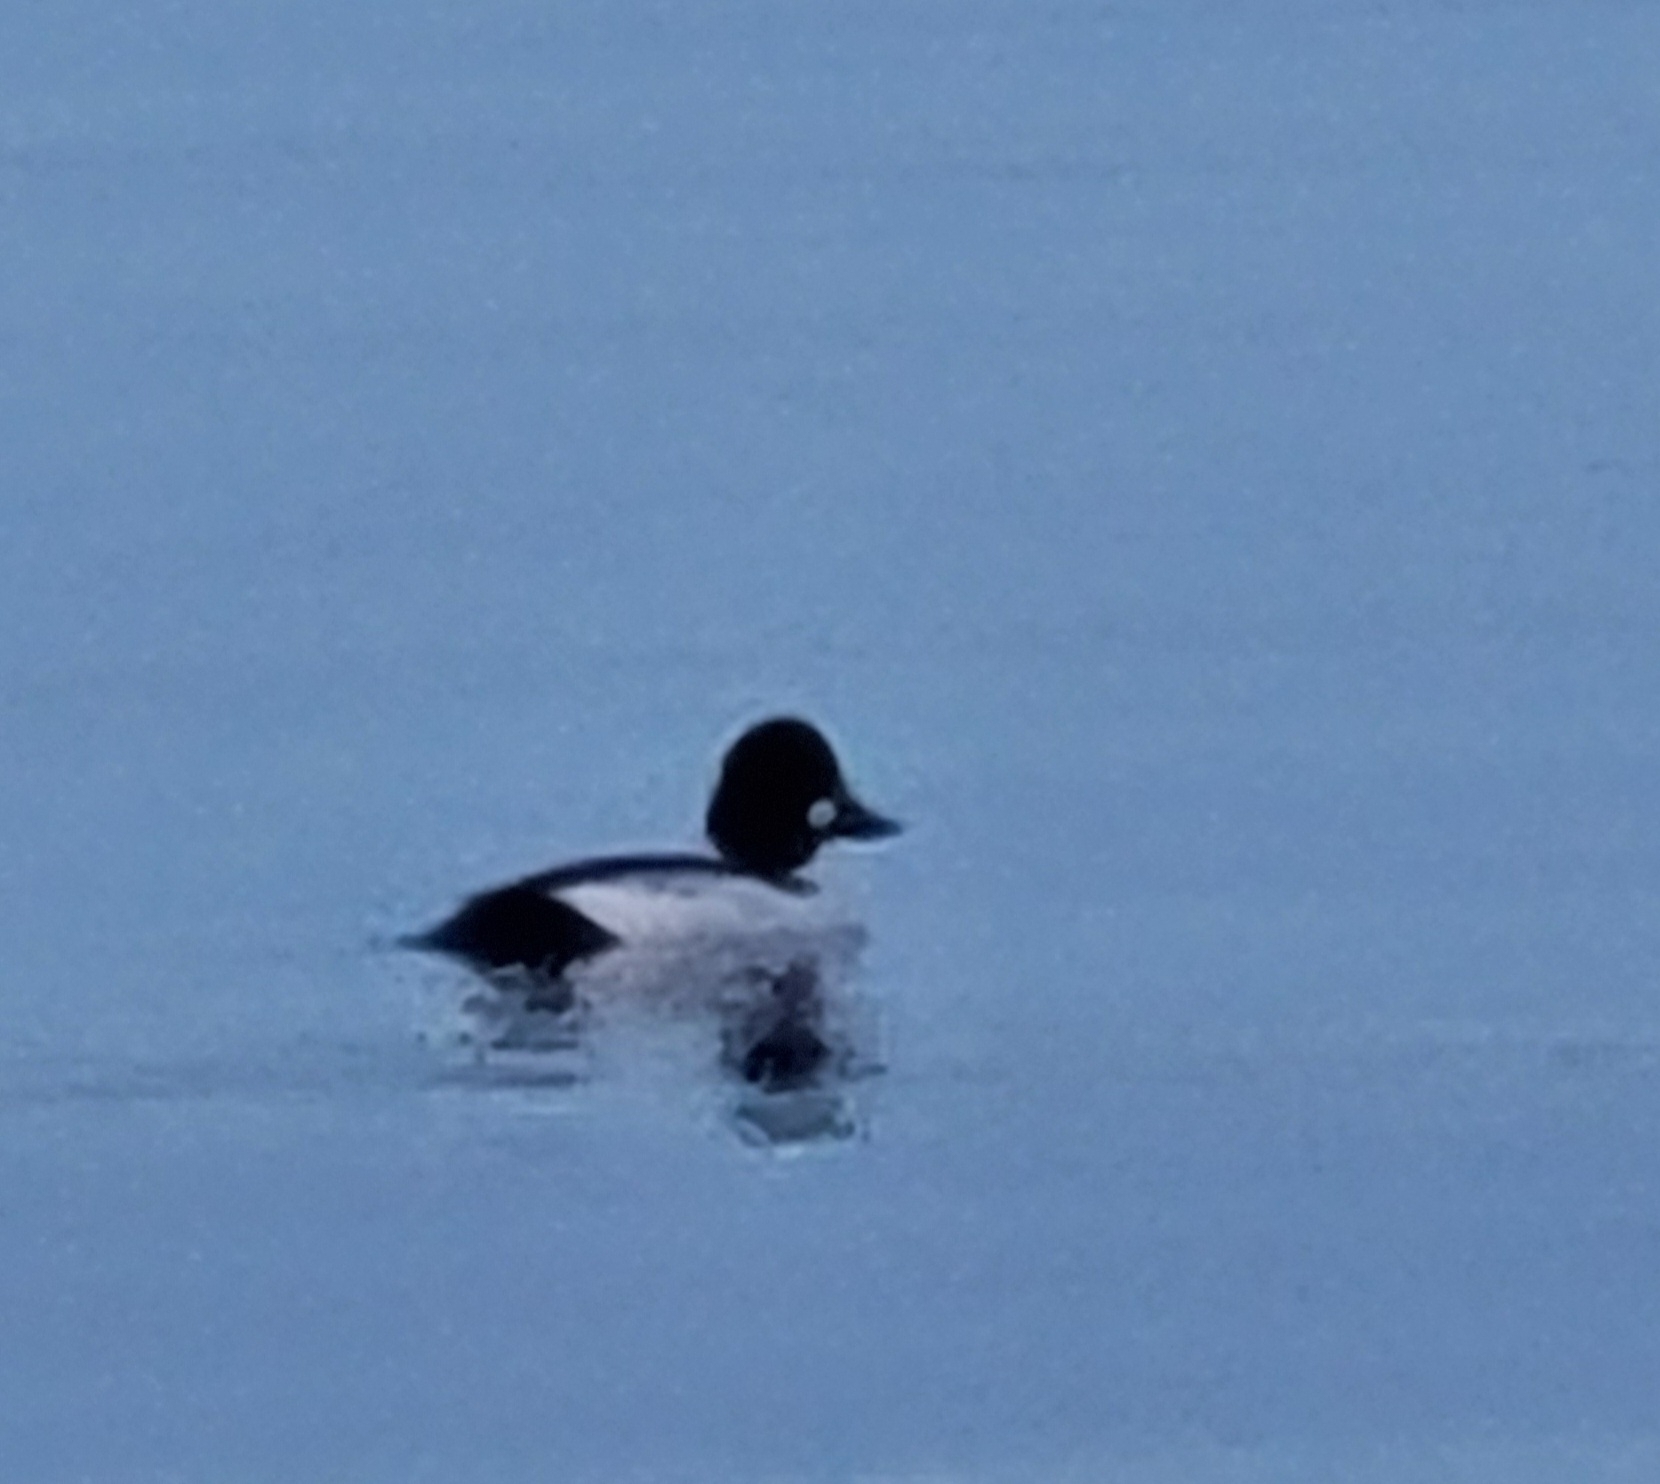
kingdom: Animalia
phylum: Chordata
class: Aves
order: Anseriformes
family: Anatidae
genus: Bucephala
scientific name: Bucephala clangula
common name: Common goldeneye
